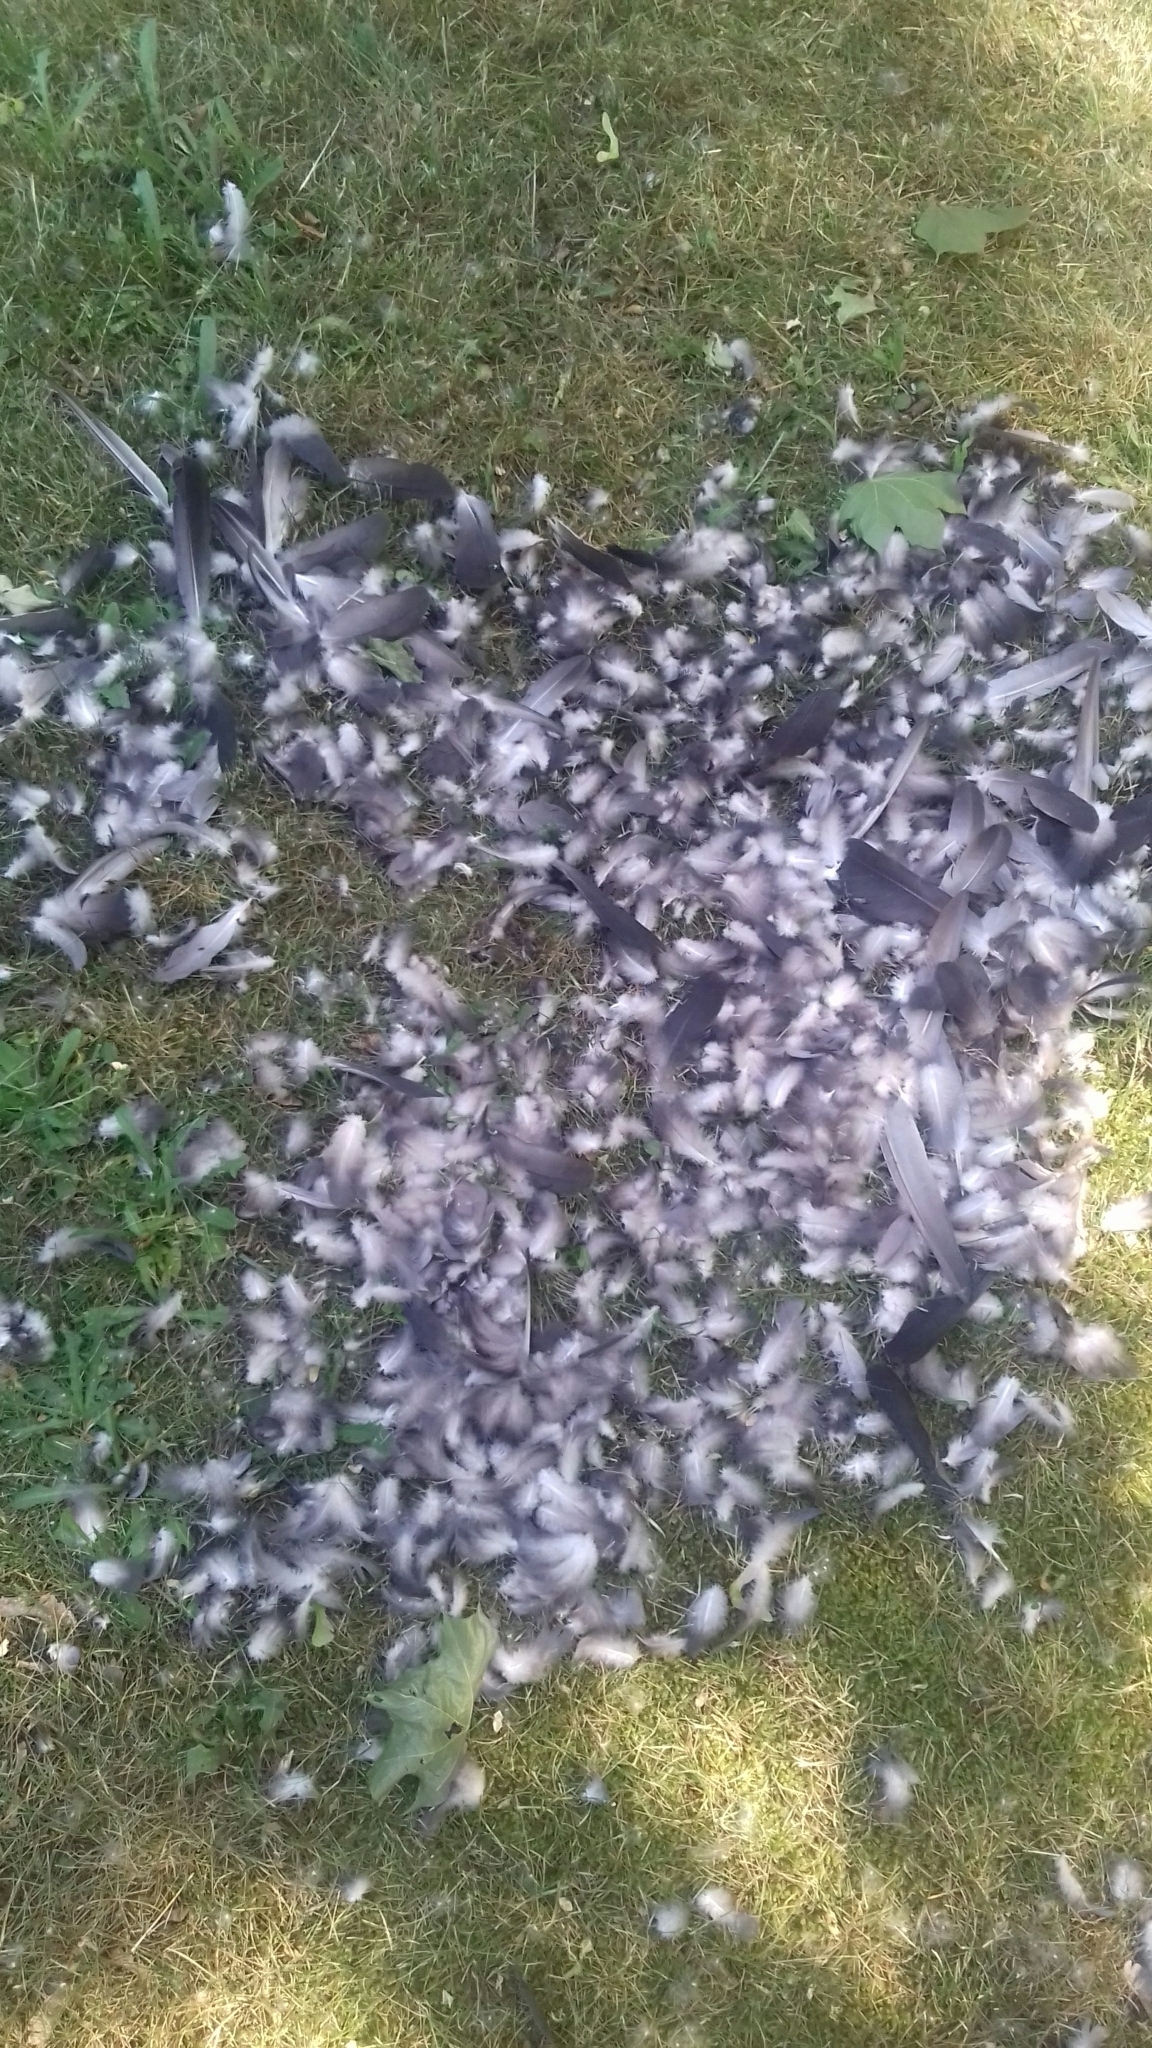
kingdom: Animalia
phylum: Chordata
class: Aves
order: Columbiformes
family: Columbidae
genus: Columba
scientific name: Columba livia
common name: Rock pigeon
